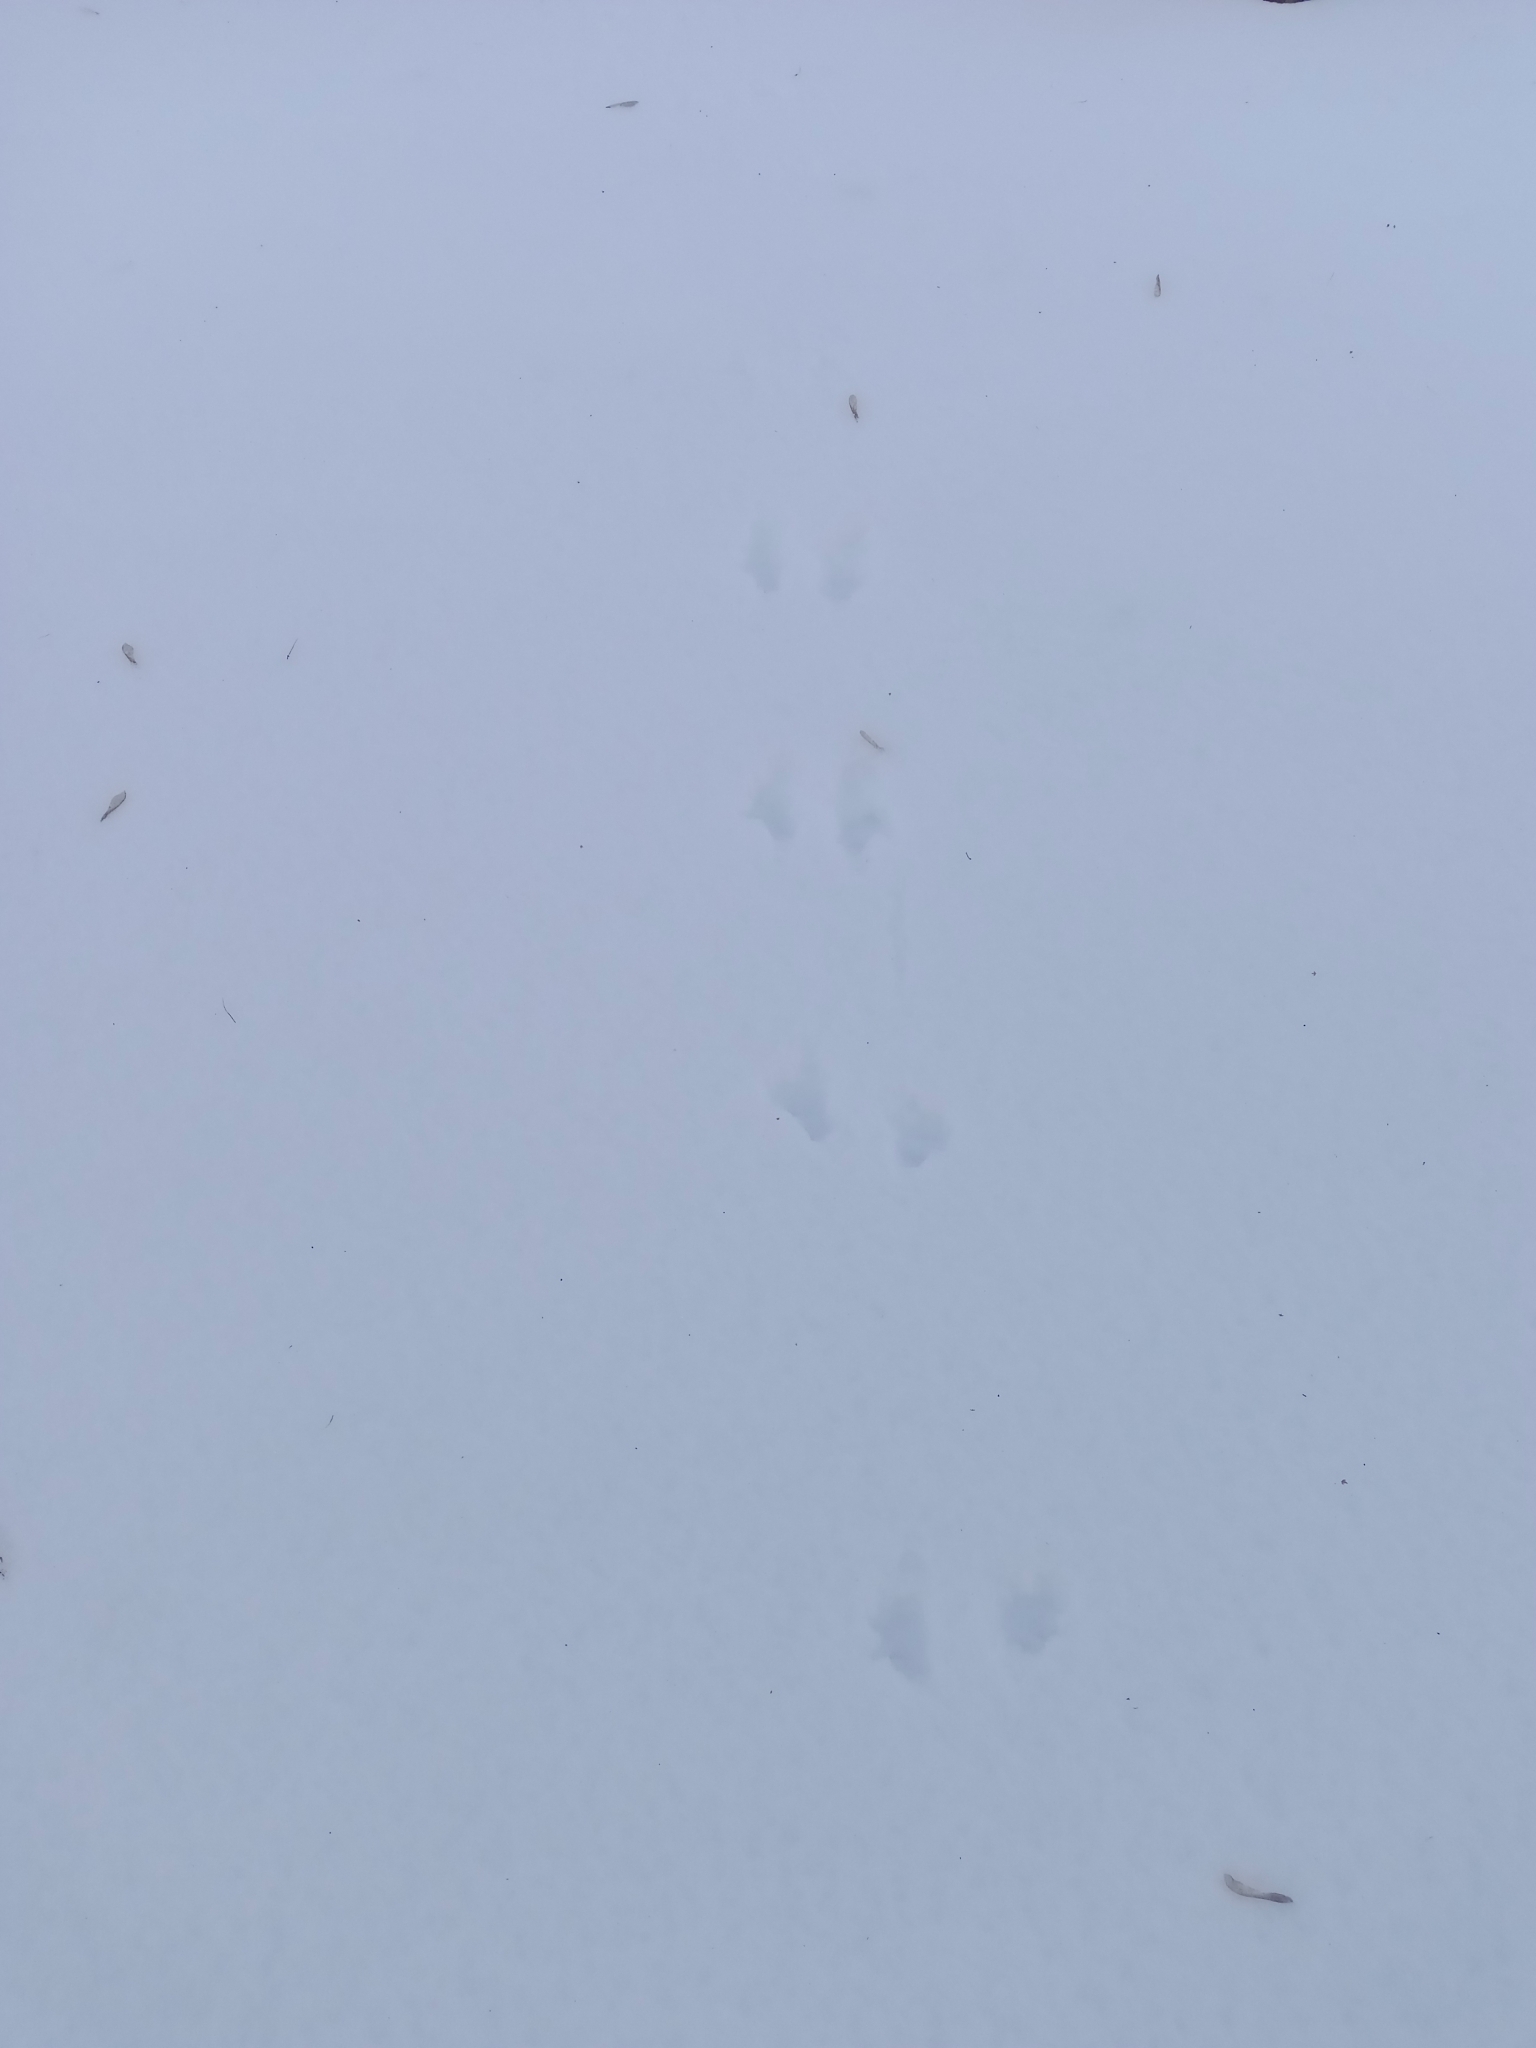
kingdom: Animalia
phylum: Chordata
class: Mammalia
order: Rodentia
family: Sciuridae
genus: Sciurus
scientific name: Sciurus vulgaris
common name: Eurasian red squirrel
